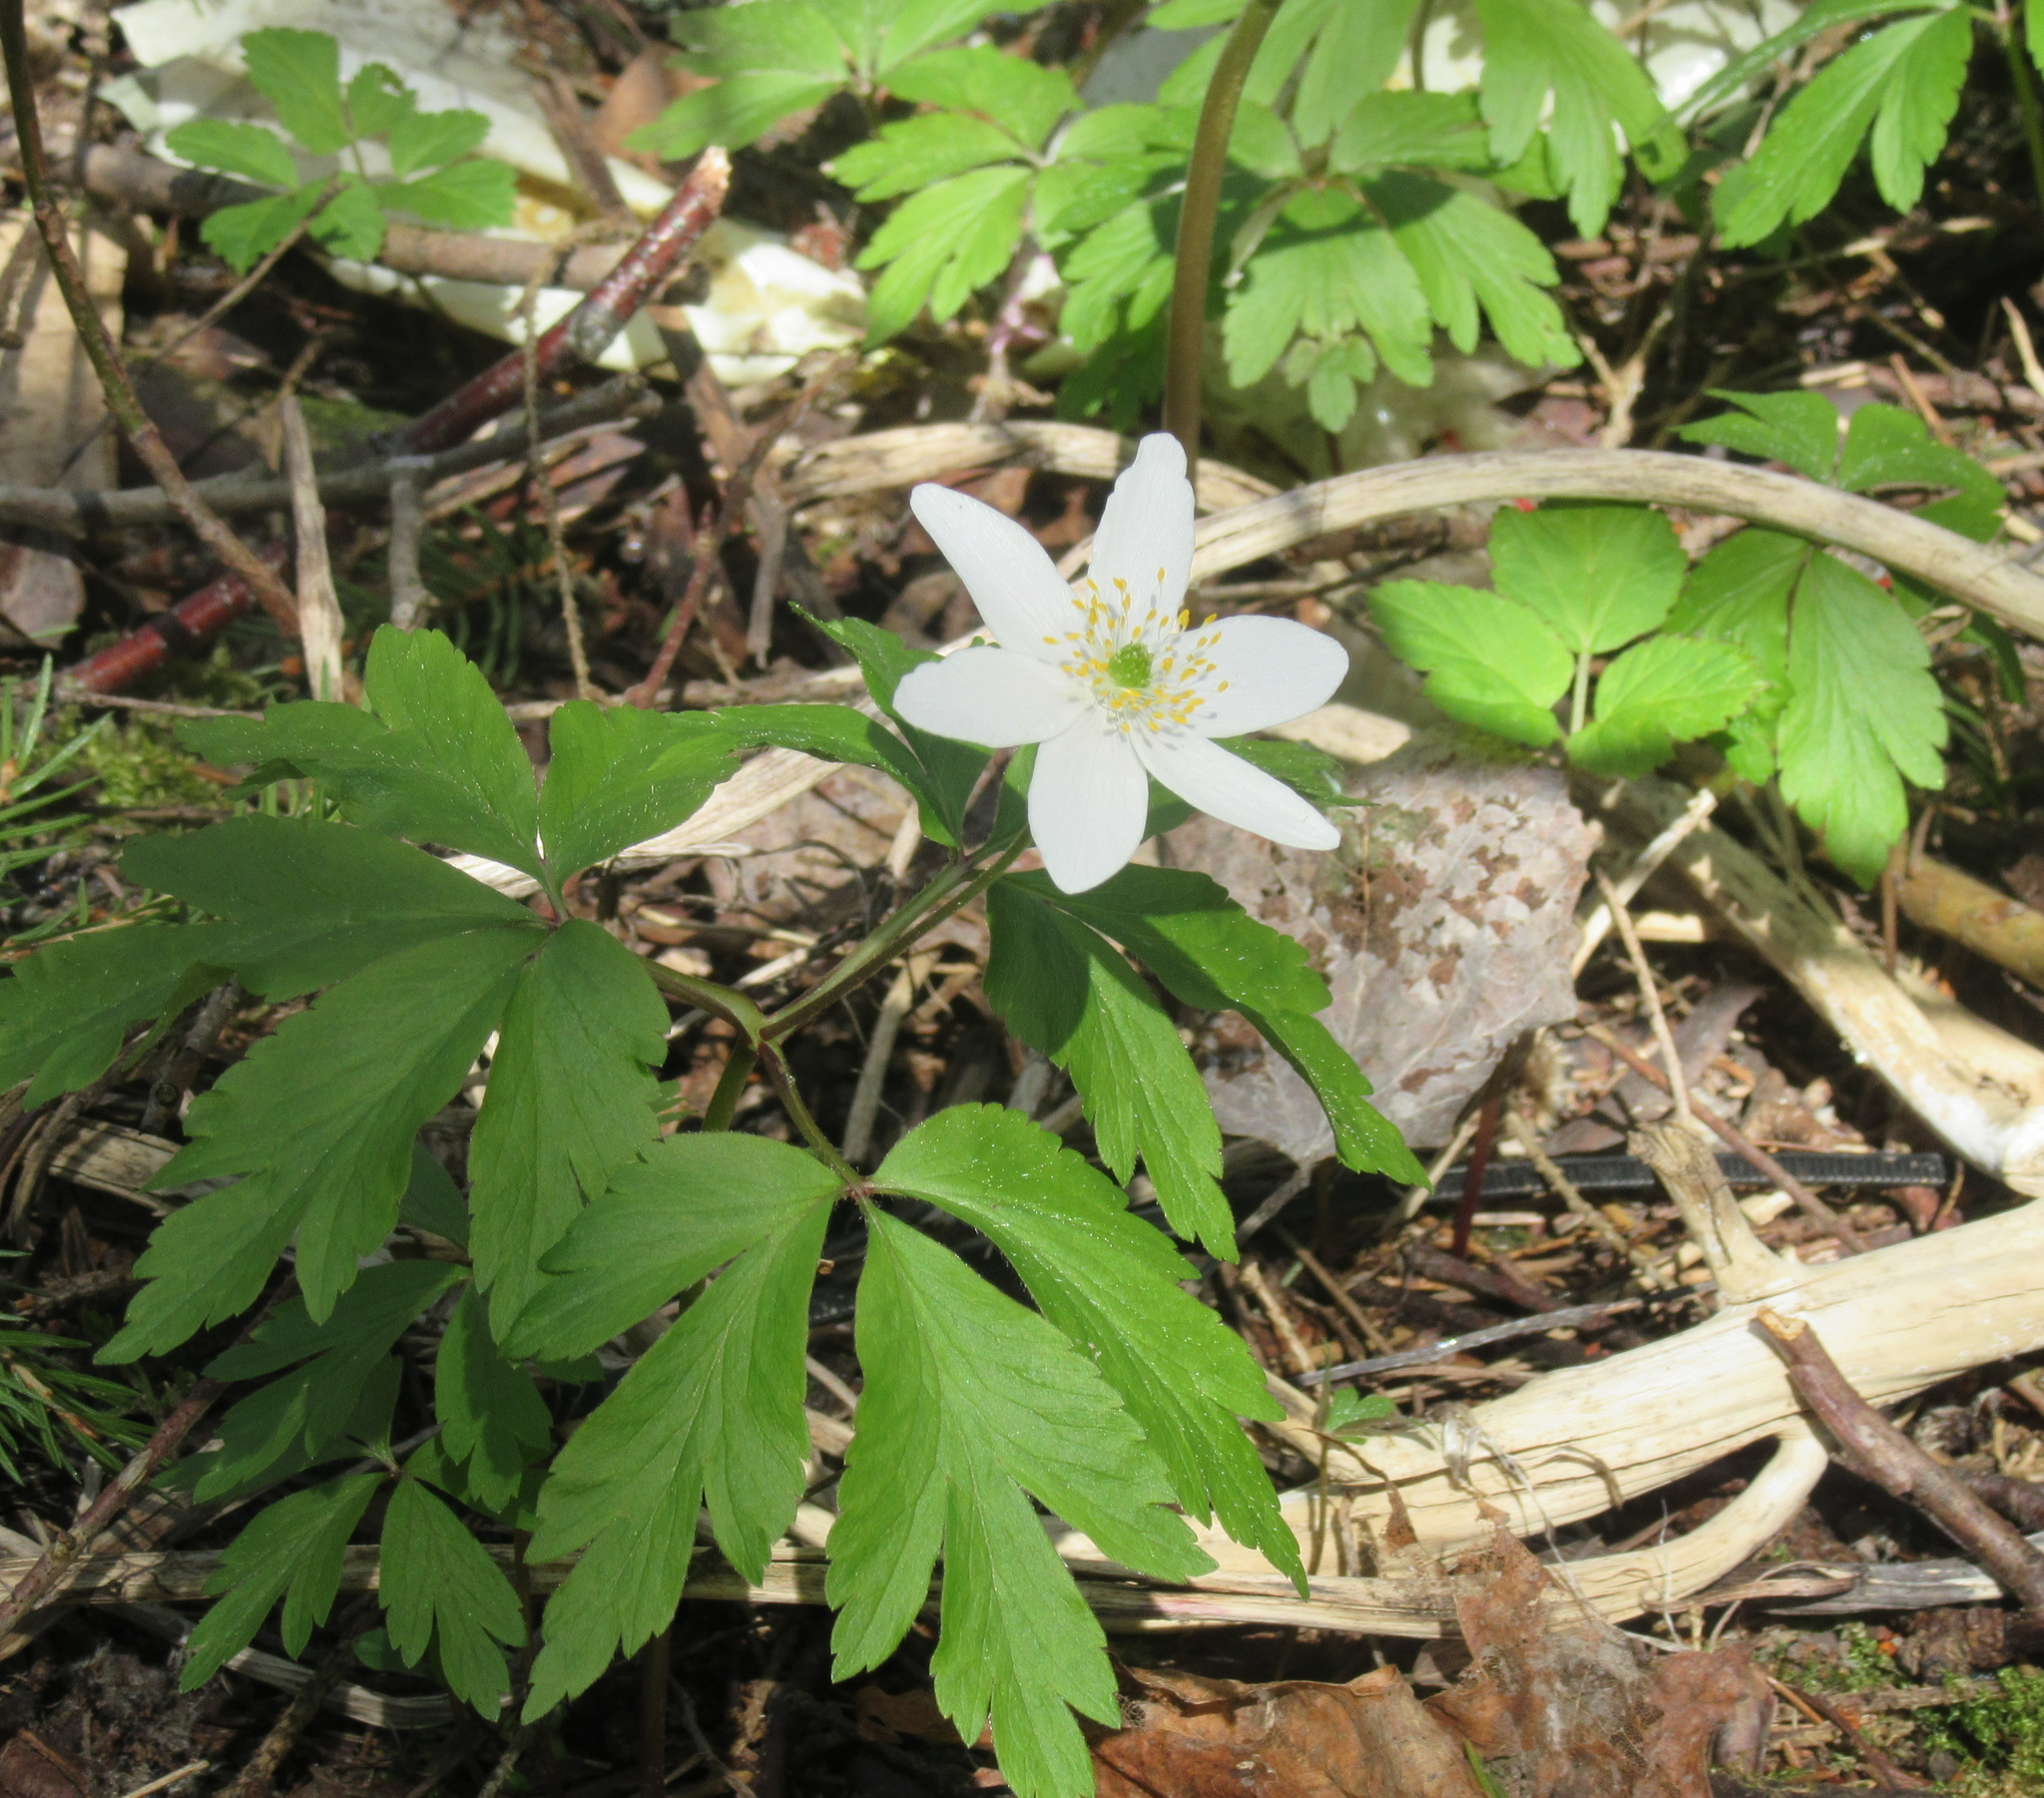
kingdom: Plantae
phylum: Tracheophyta
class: Magnoliopsida
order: Ranunculales
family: Ranunculaceae
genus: Anemone
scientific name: Anemone nemorosa
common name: Wood anemone
